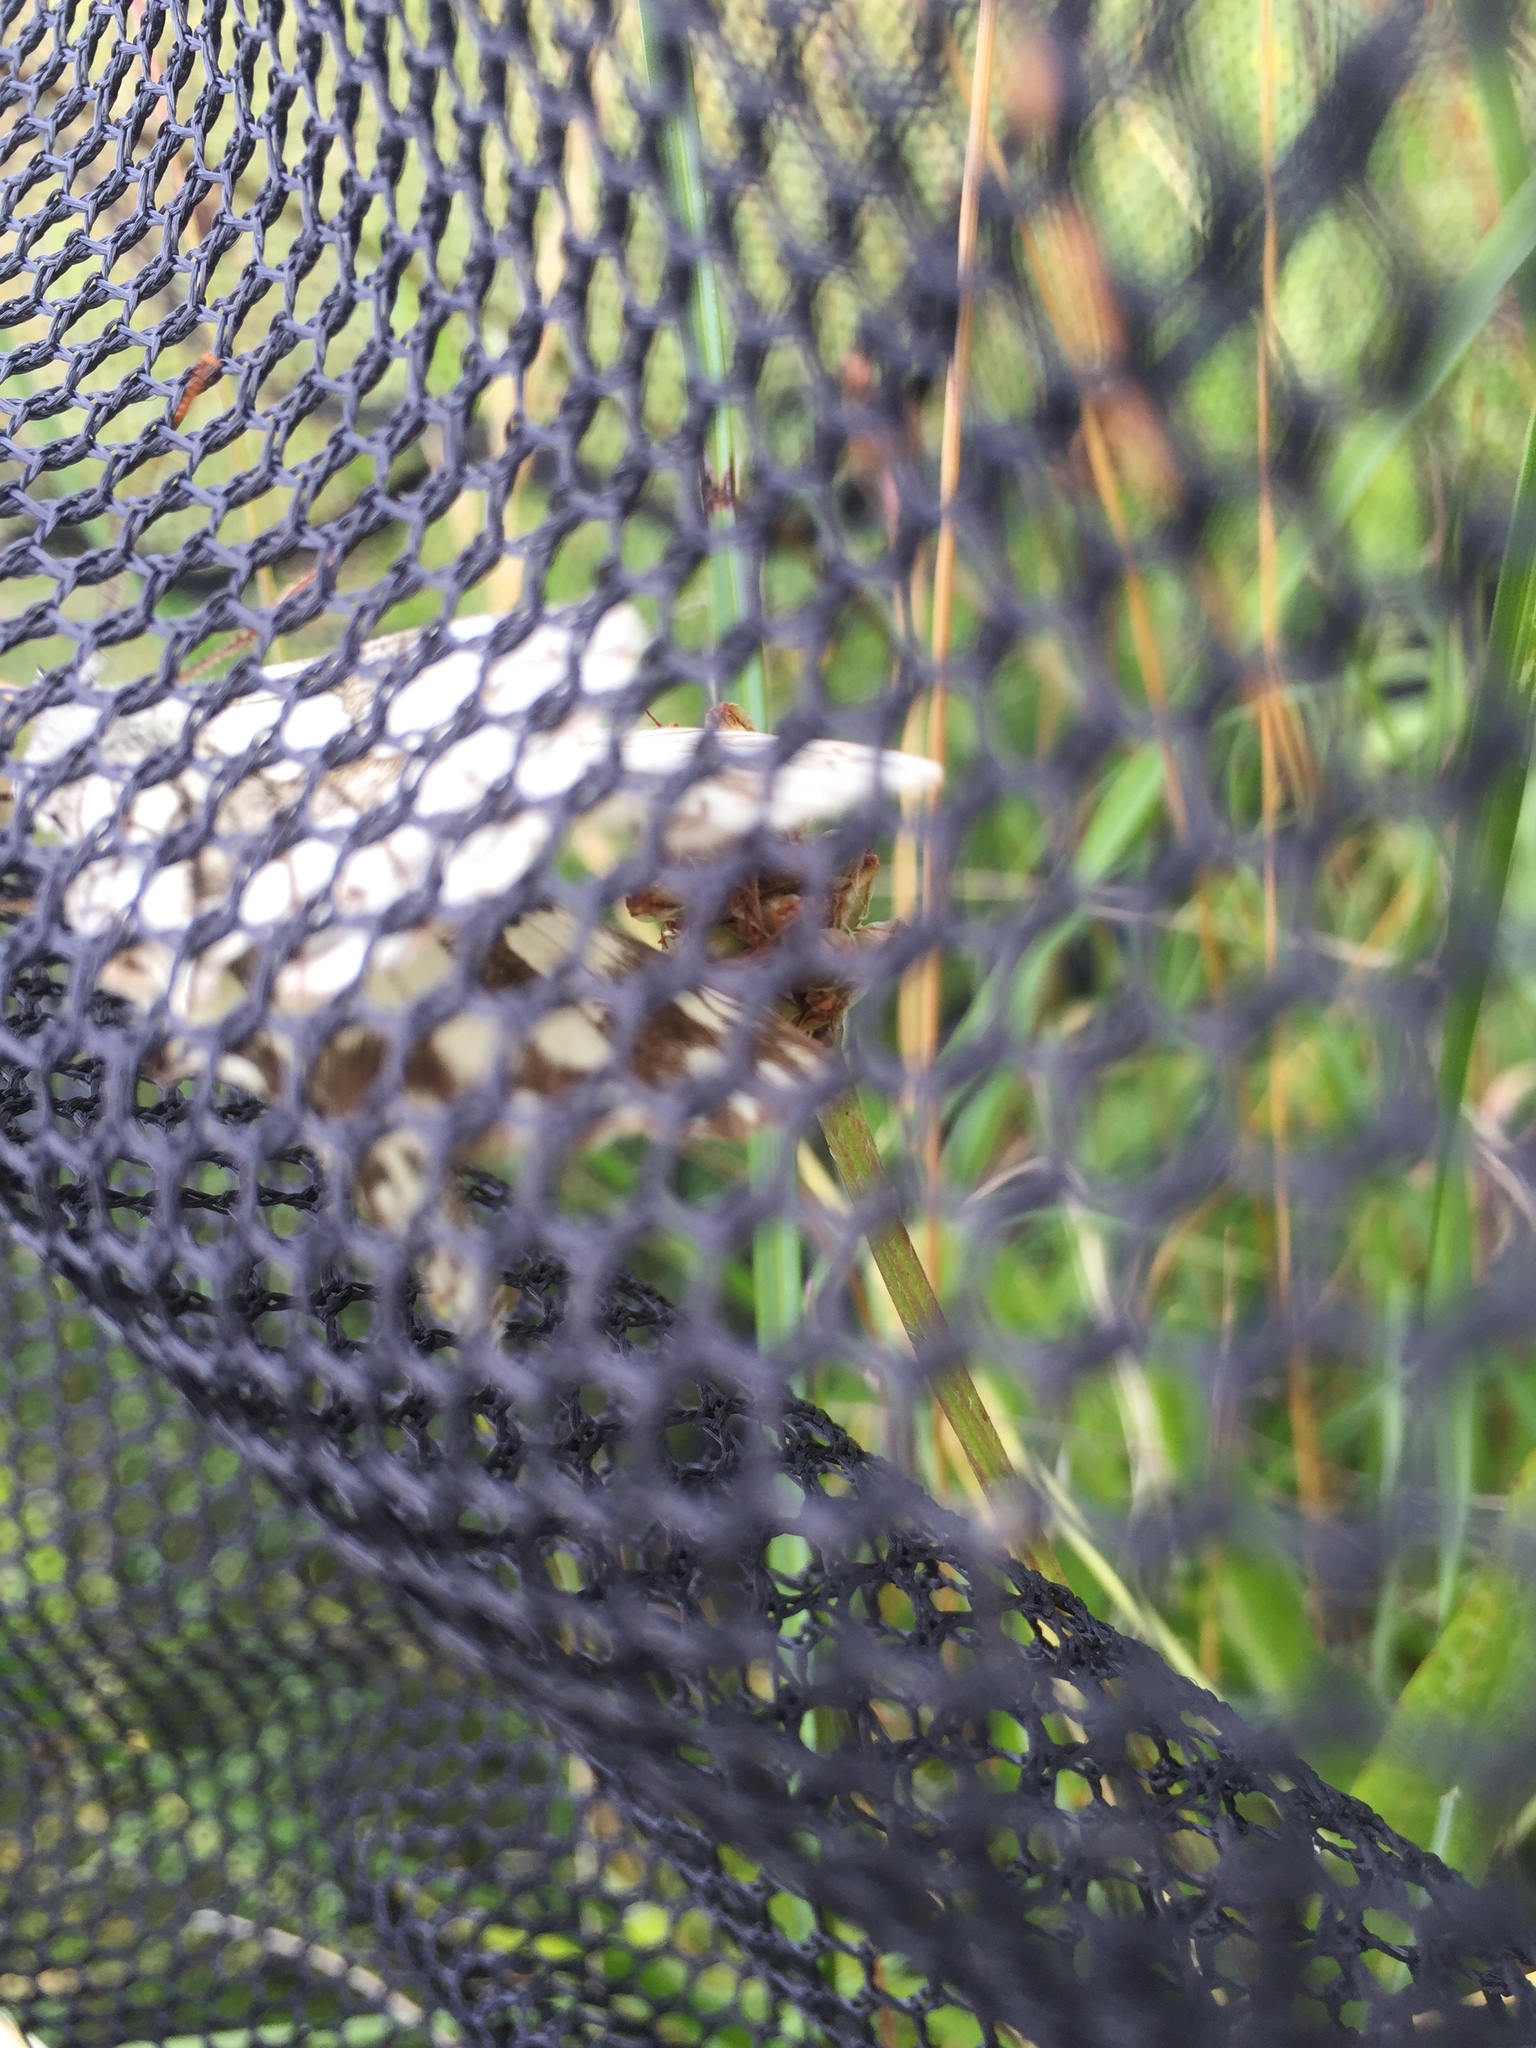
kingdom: Animalia
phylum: Arthropoda
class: Insecta
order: Lepidoptera
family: Nymphalidae
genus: Melanargia
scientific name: Melanargia galathea
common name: Marbled white
